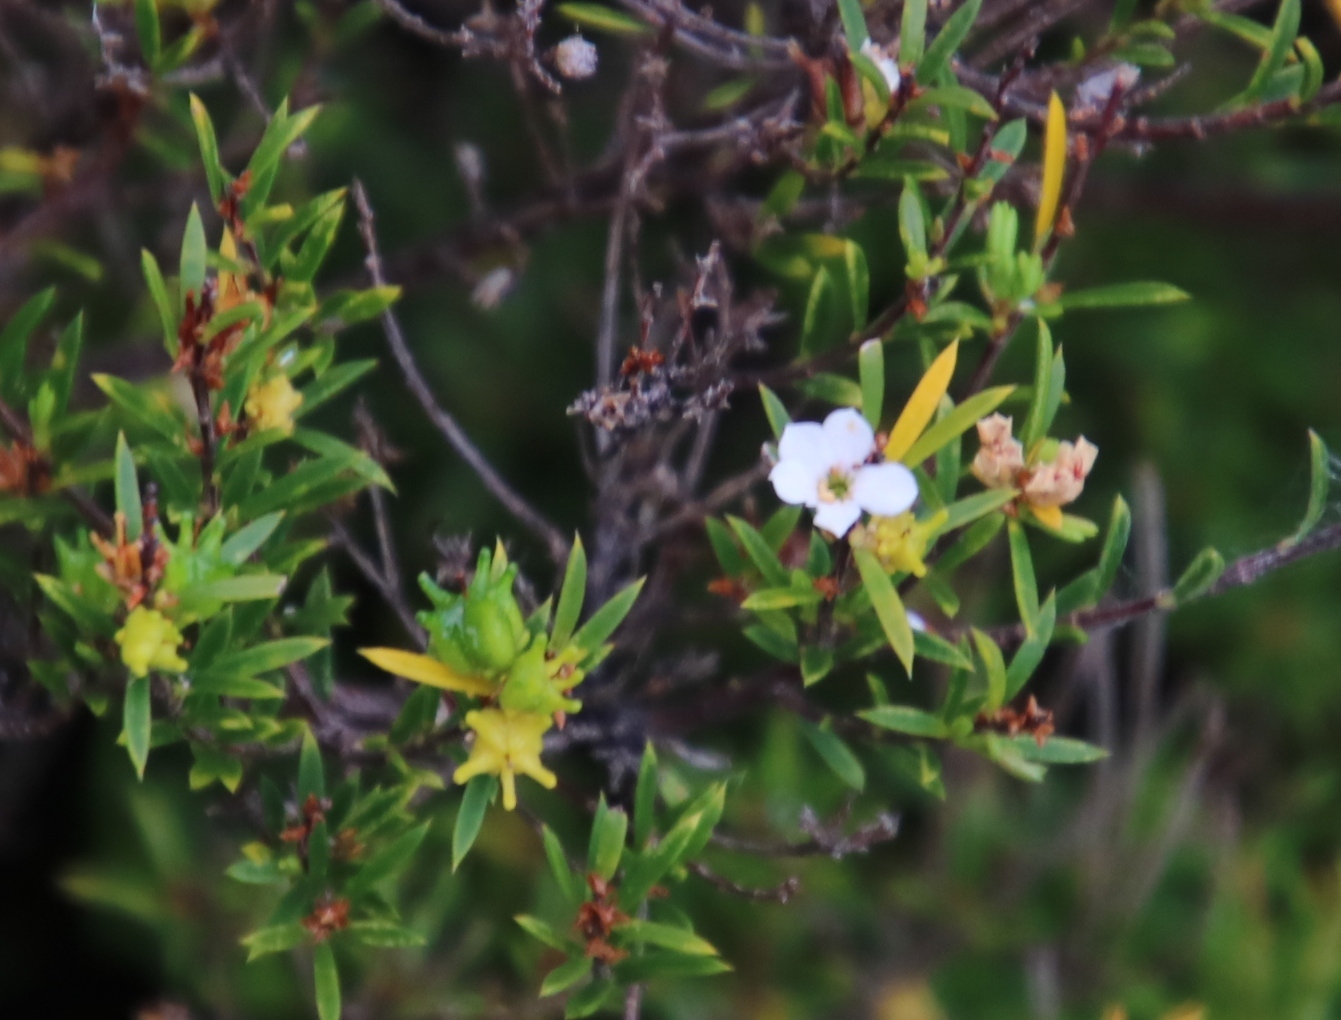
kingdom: Plantae
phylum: Tracheophyta
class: Magnoliopsida
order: Sapindales
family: Rutaceae
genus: Coleonema
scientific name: Coleonema album
